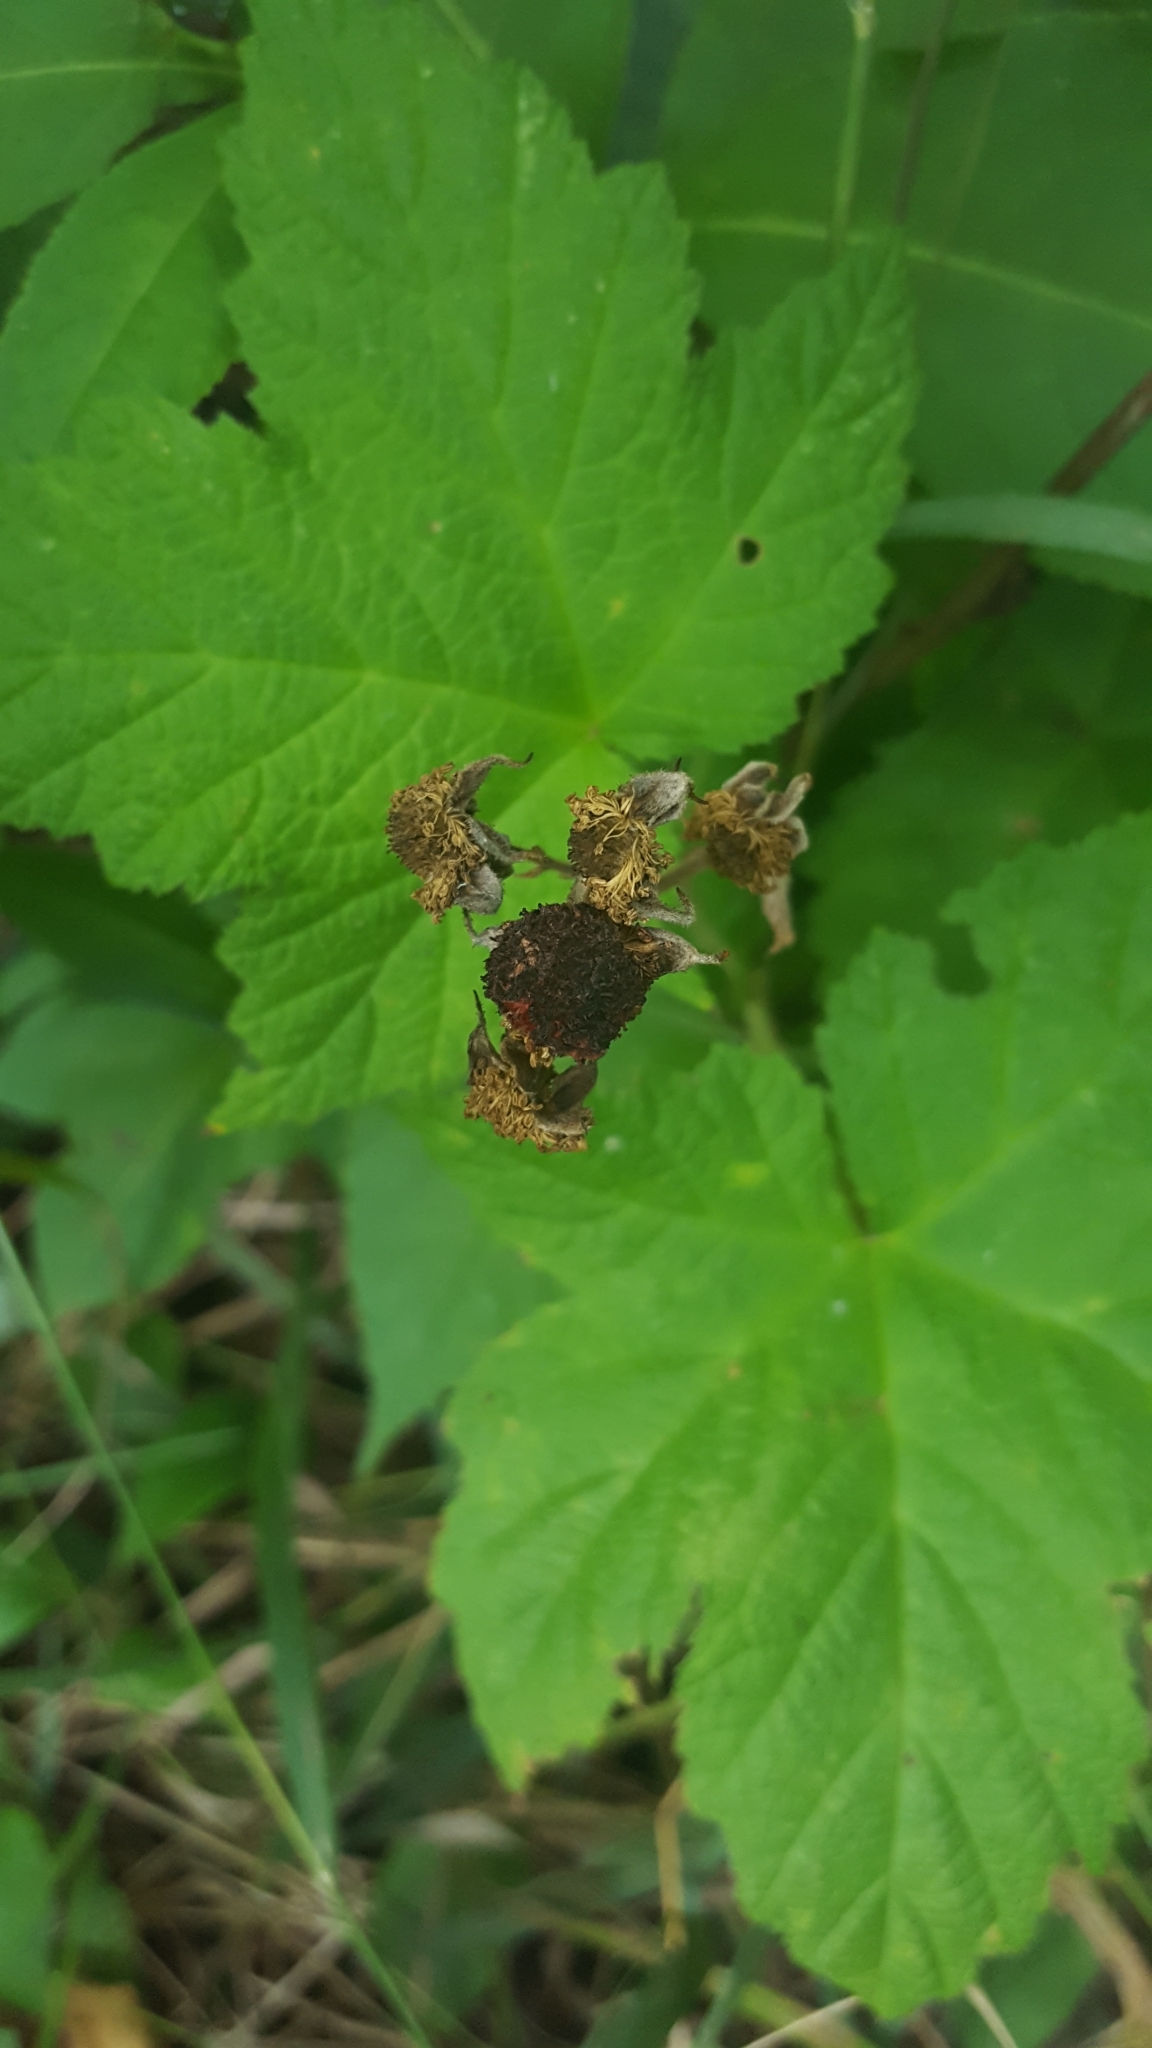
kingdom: Plantae
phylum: Tracheophyta
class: Magnoliopsida
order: Rosales
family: Rosaceae
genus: Rubus
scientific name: Rubus parviflorus
